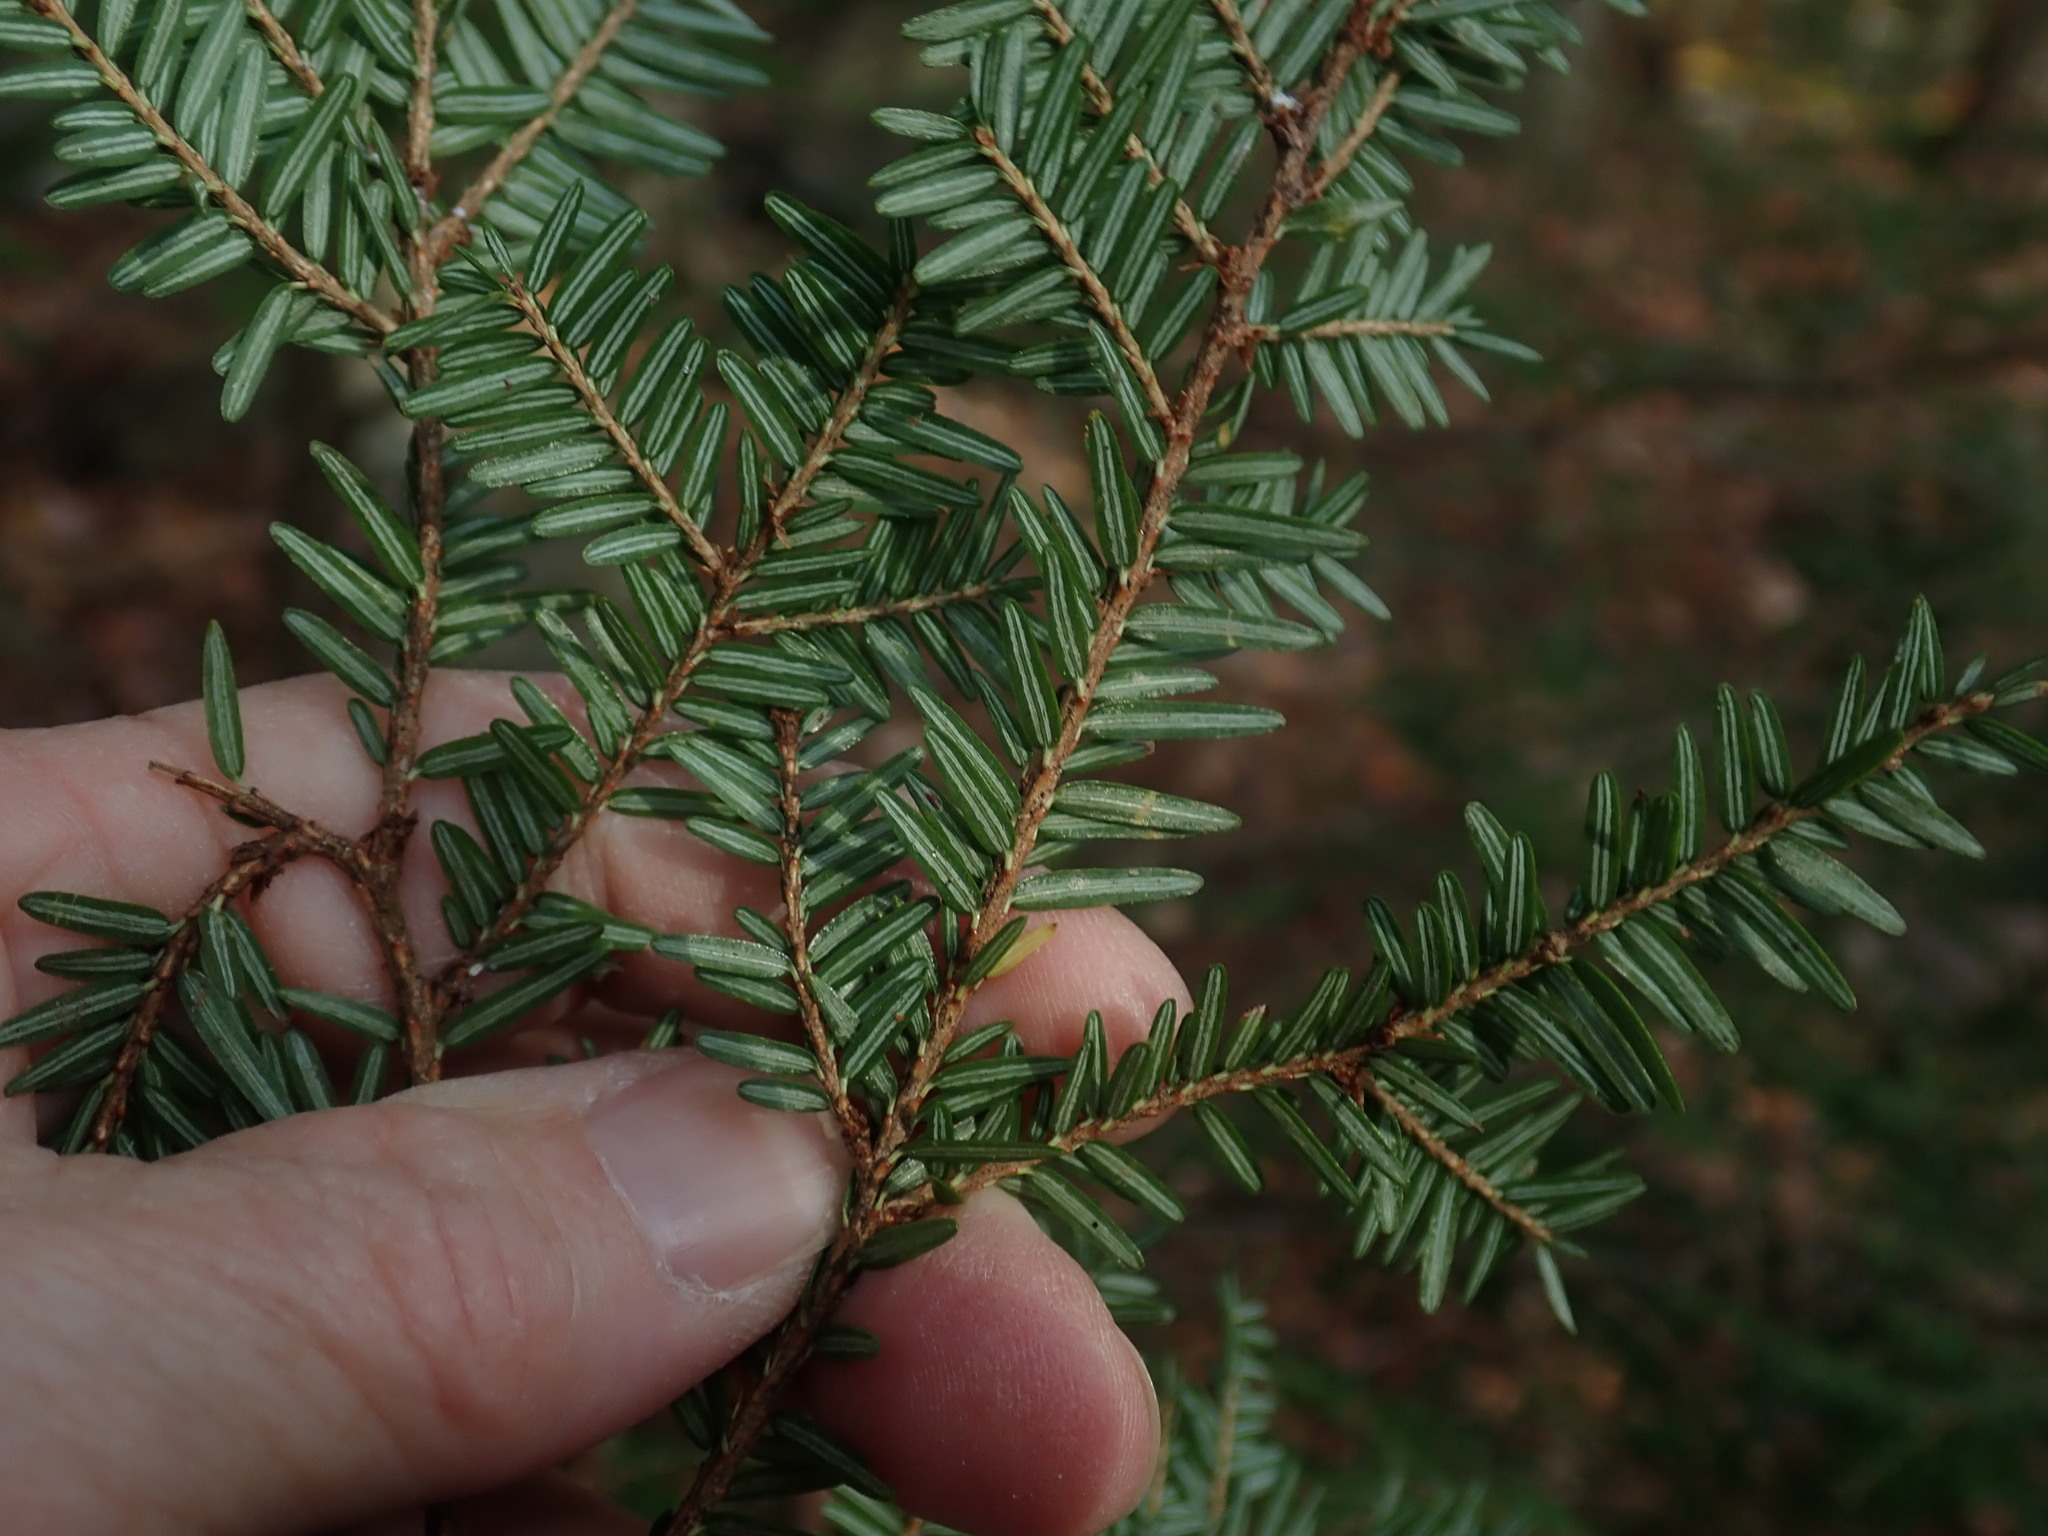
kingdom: Plantae
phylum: Tracheophyta
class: Pinopsida
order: Pinales
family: Pinaceae
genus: Tsuga
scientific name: Tsuga canadensis
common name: Eastern hemlock
